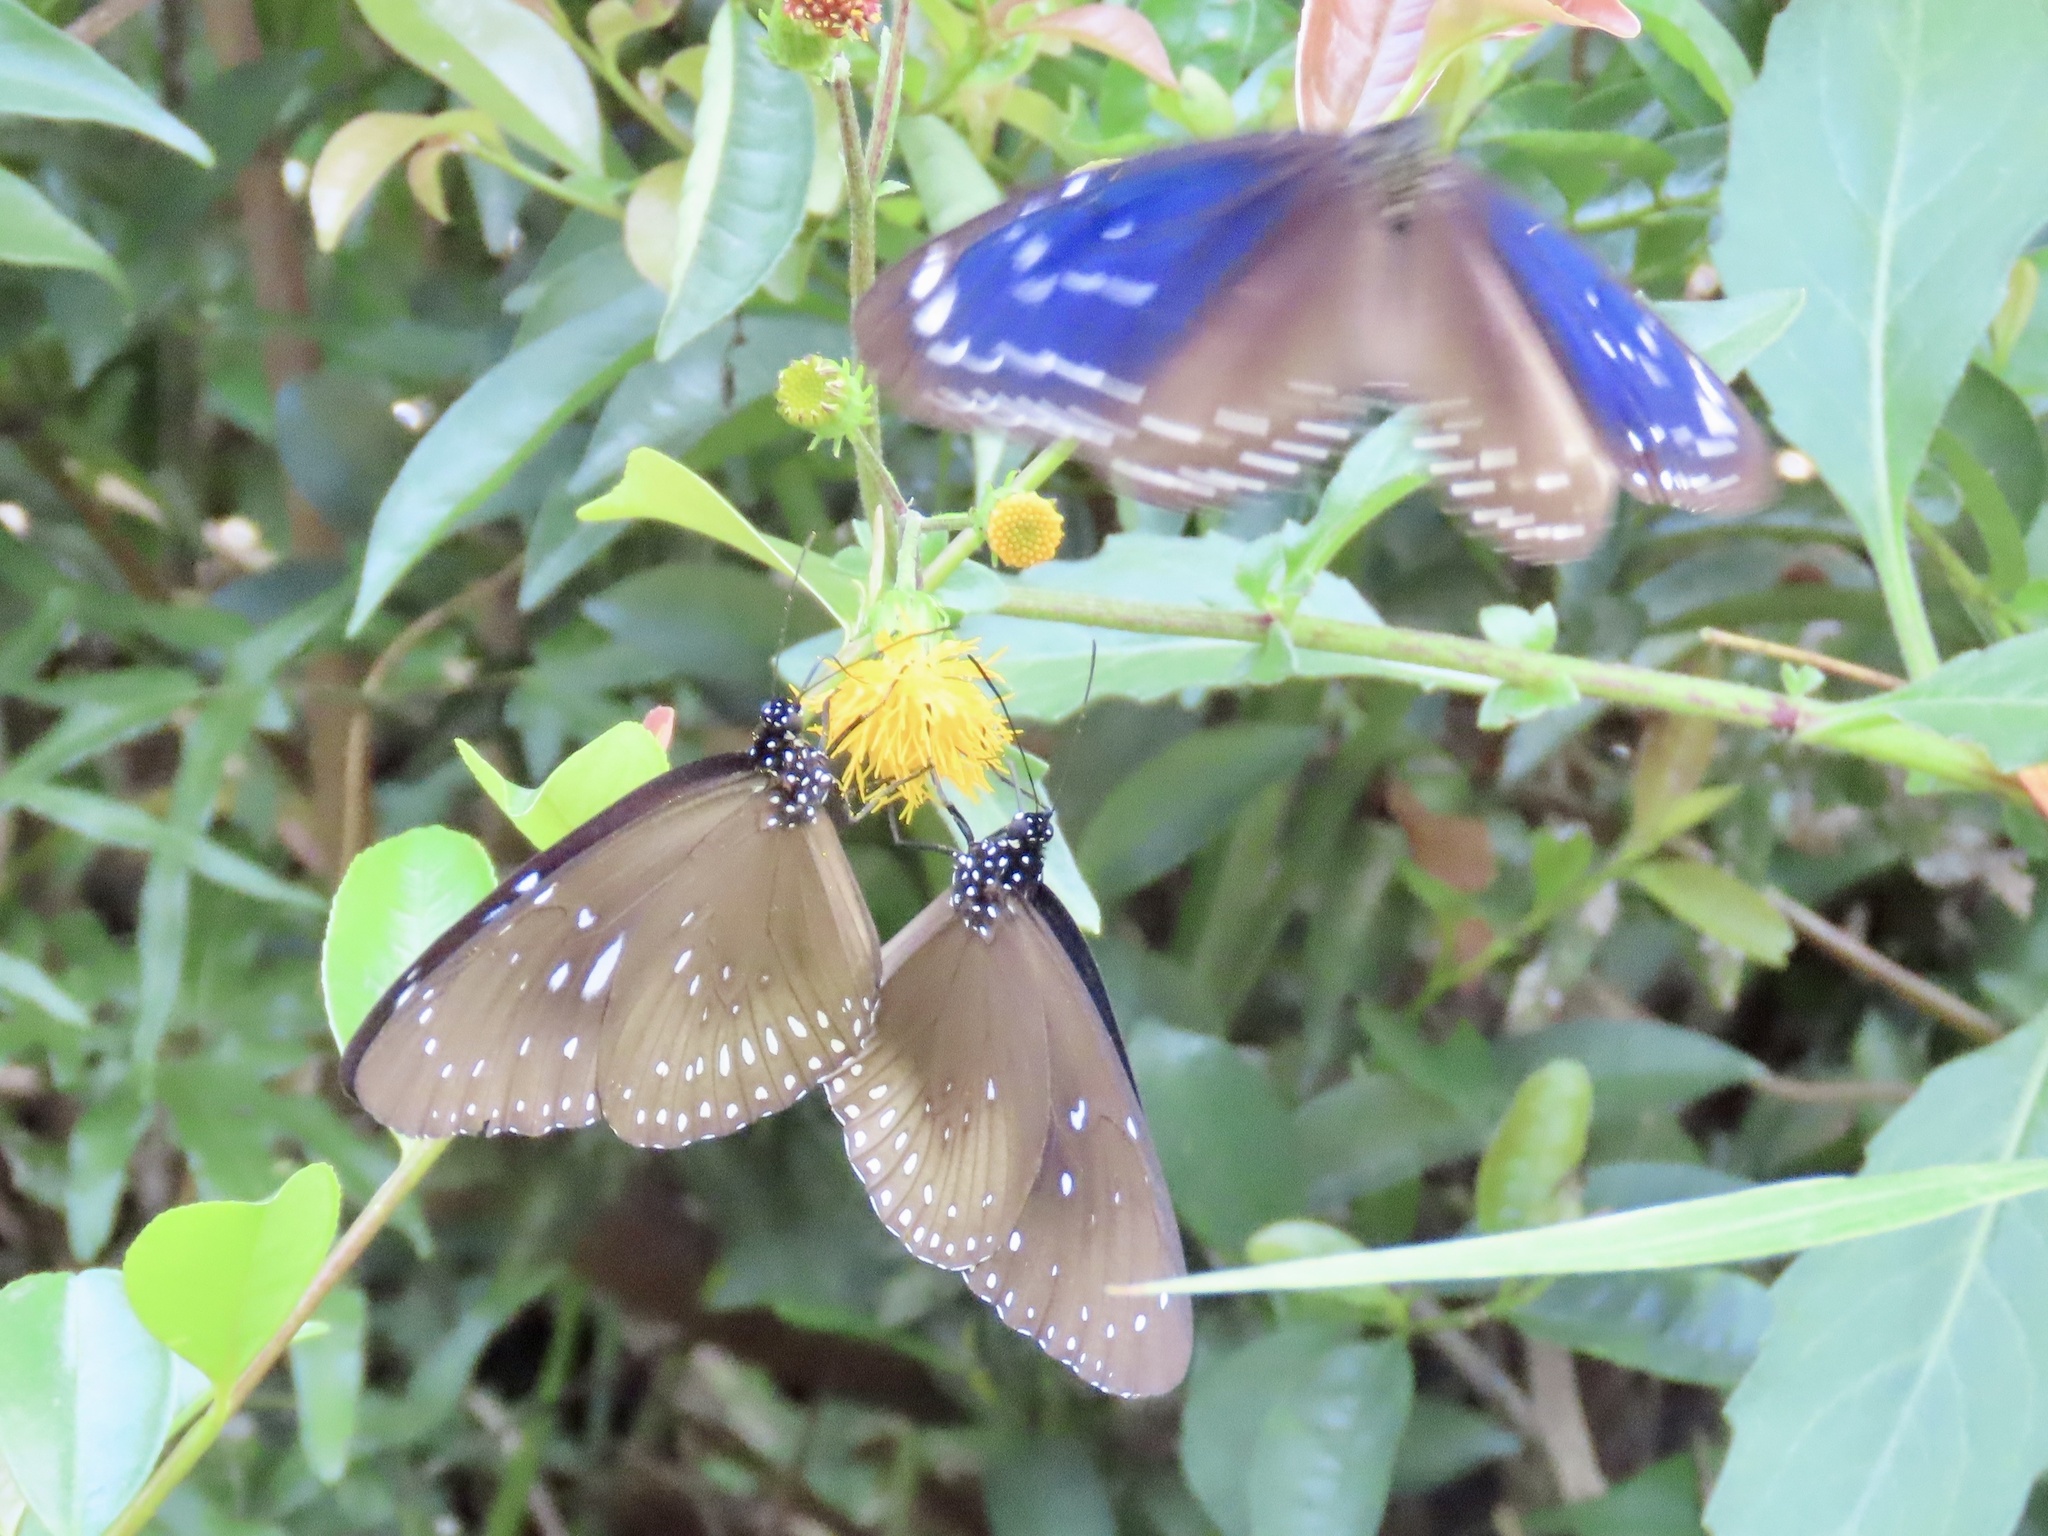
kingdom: Animalia
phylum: Arthropoda
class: Insecta
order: Lepidoptera
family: Nymphalidae
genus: Euploea
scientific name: Euploea midamus
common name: Blue-spotted crow butterfly
